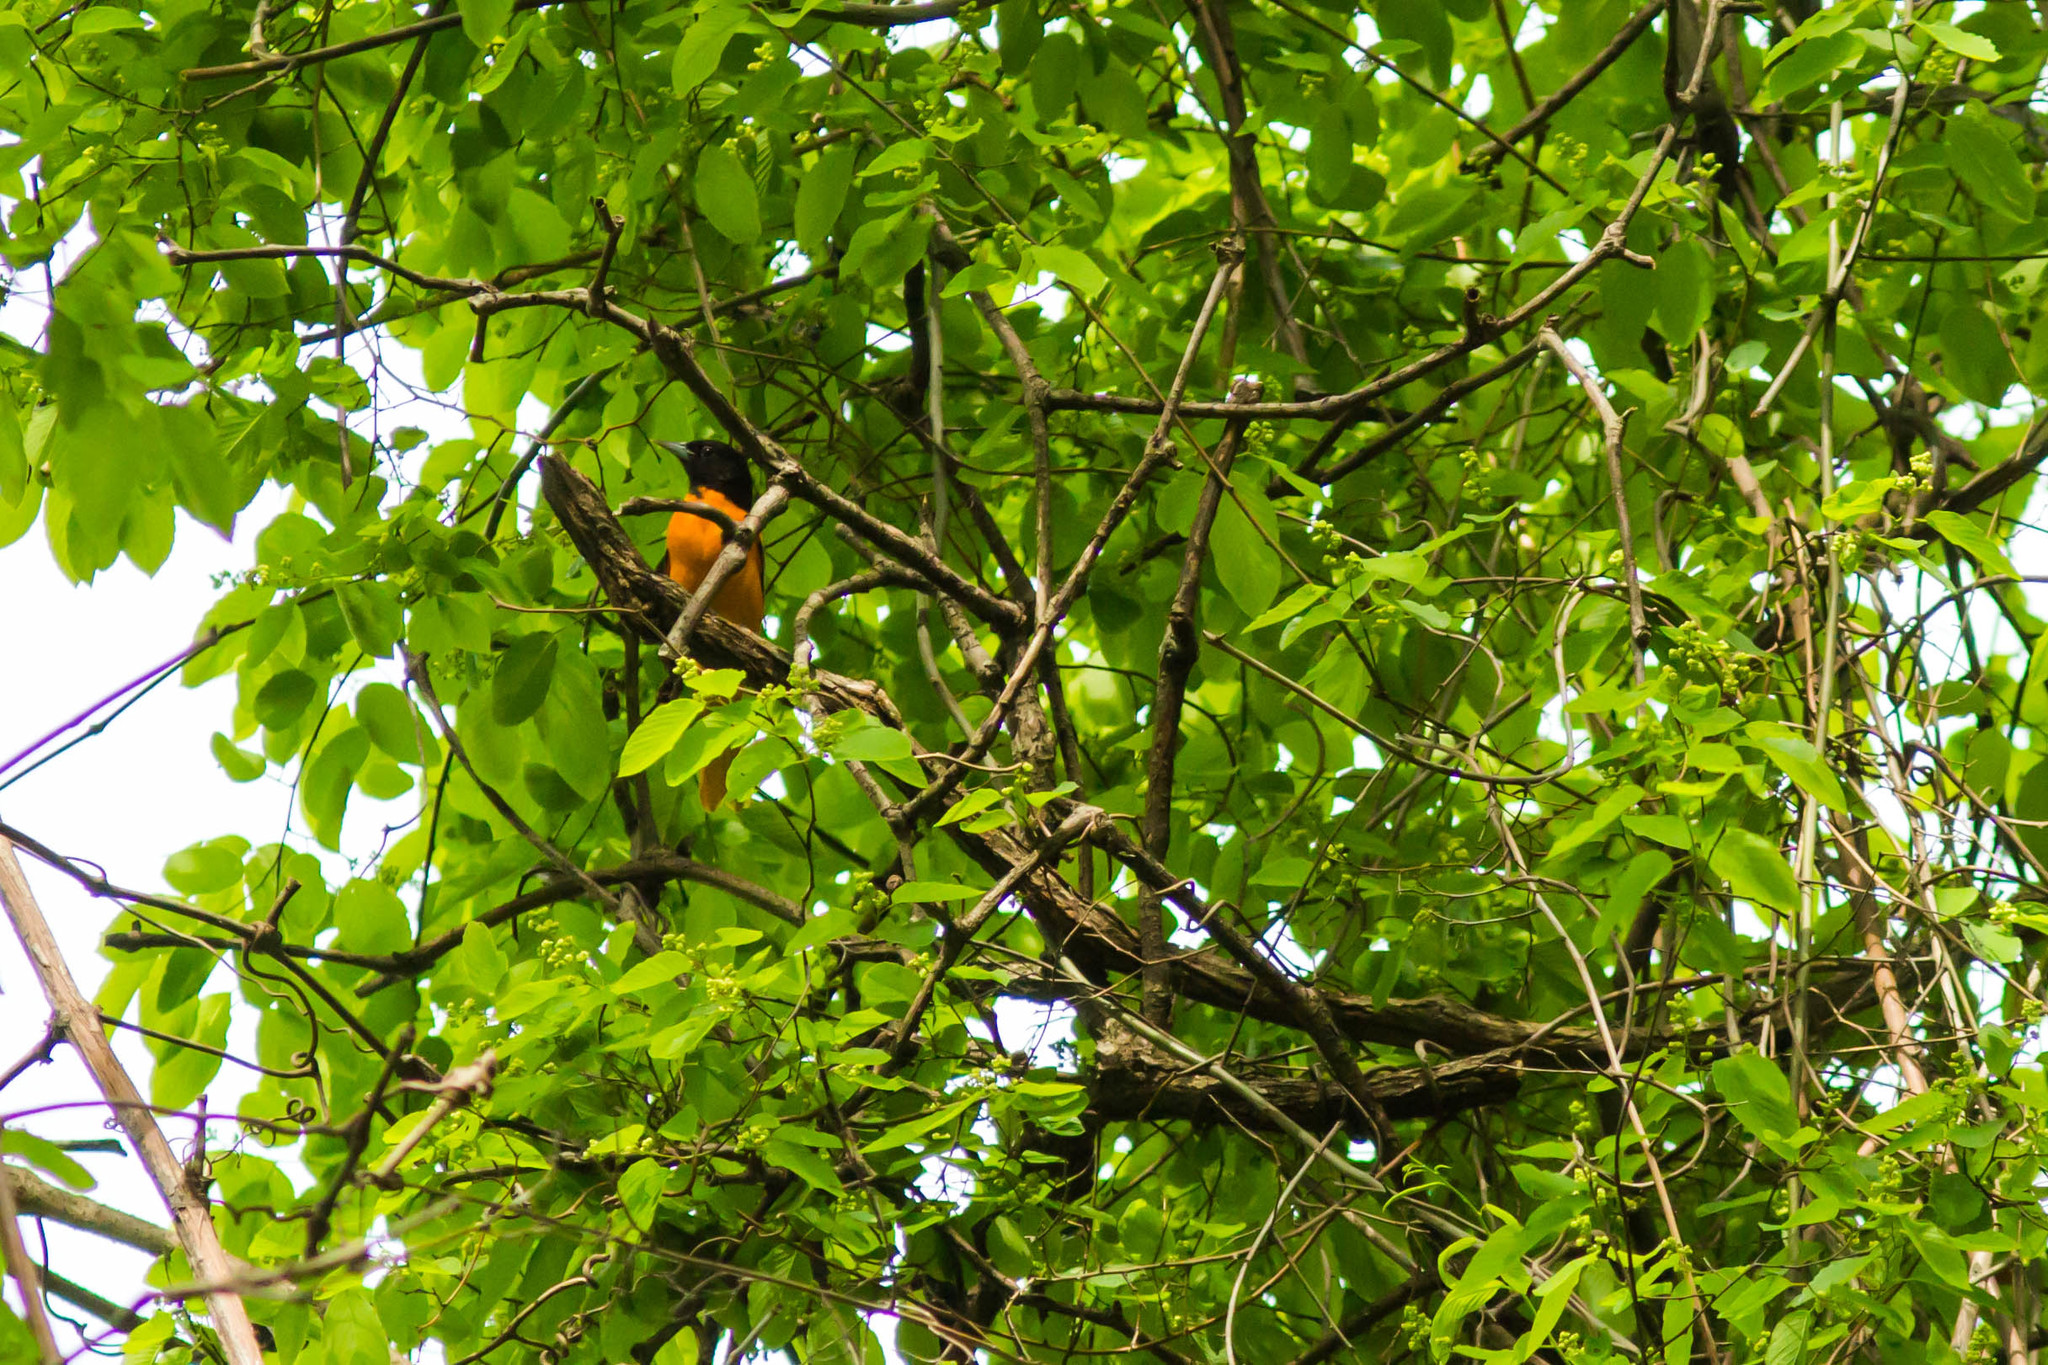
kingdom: Animalia
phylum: Chordata
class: Aves
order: Passeriformes
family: Icteridae
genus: Icterus
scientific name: Icterus galbula
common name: Baltimore oriole
